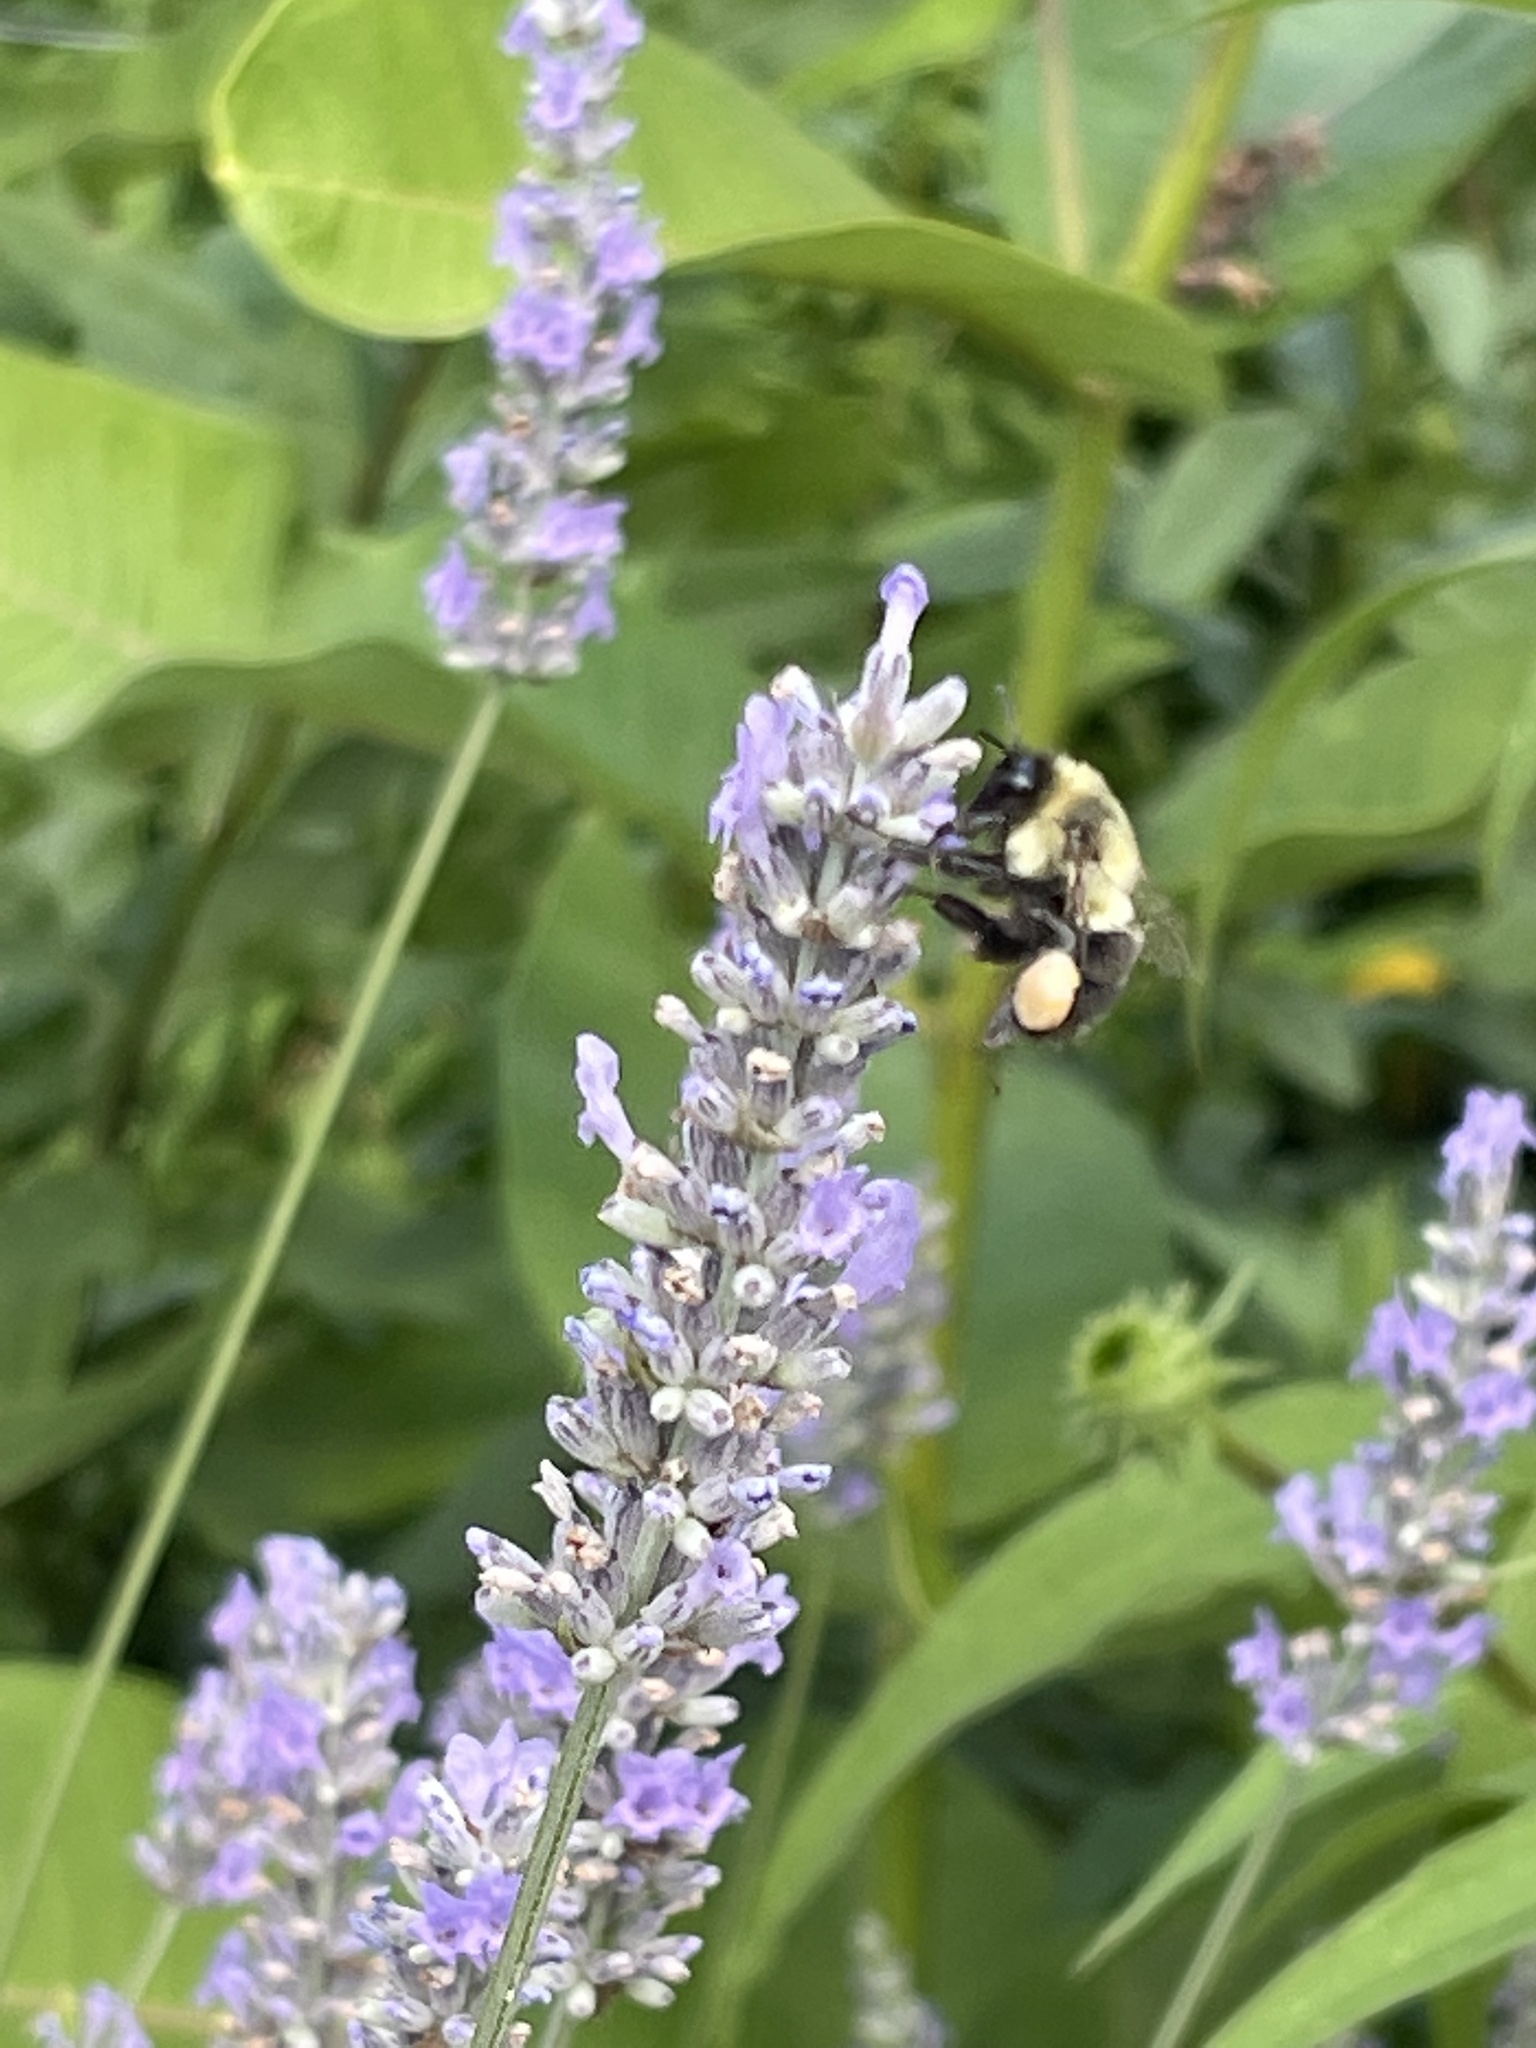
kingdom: Animalia
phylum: Arthropoda
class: Insecta
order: Hymenoptera
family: Apidae
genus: Bombus
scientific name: Bombus impatiens
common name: Common eastern bumble bee
